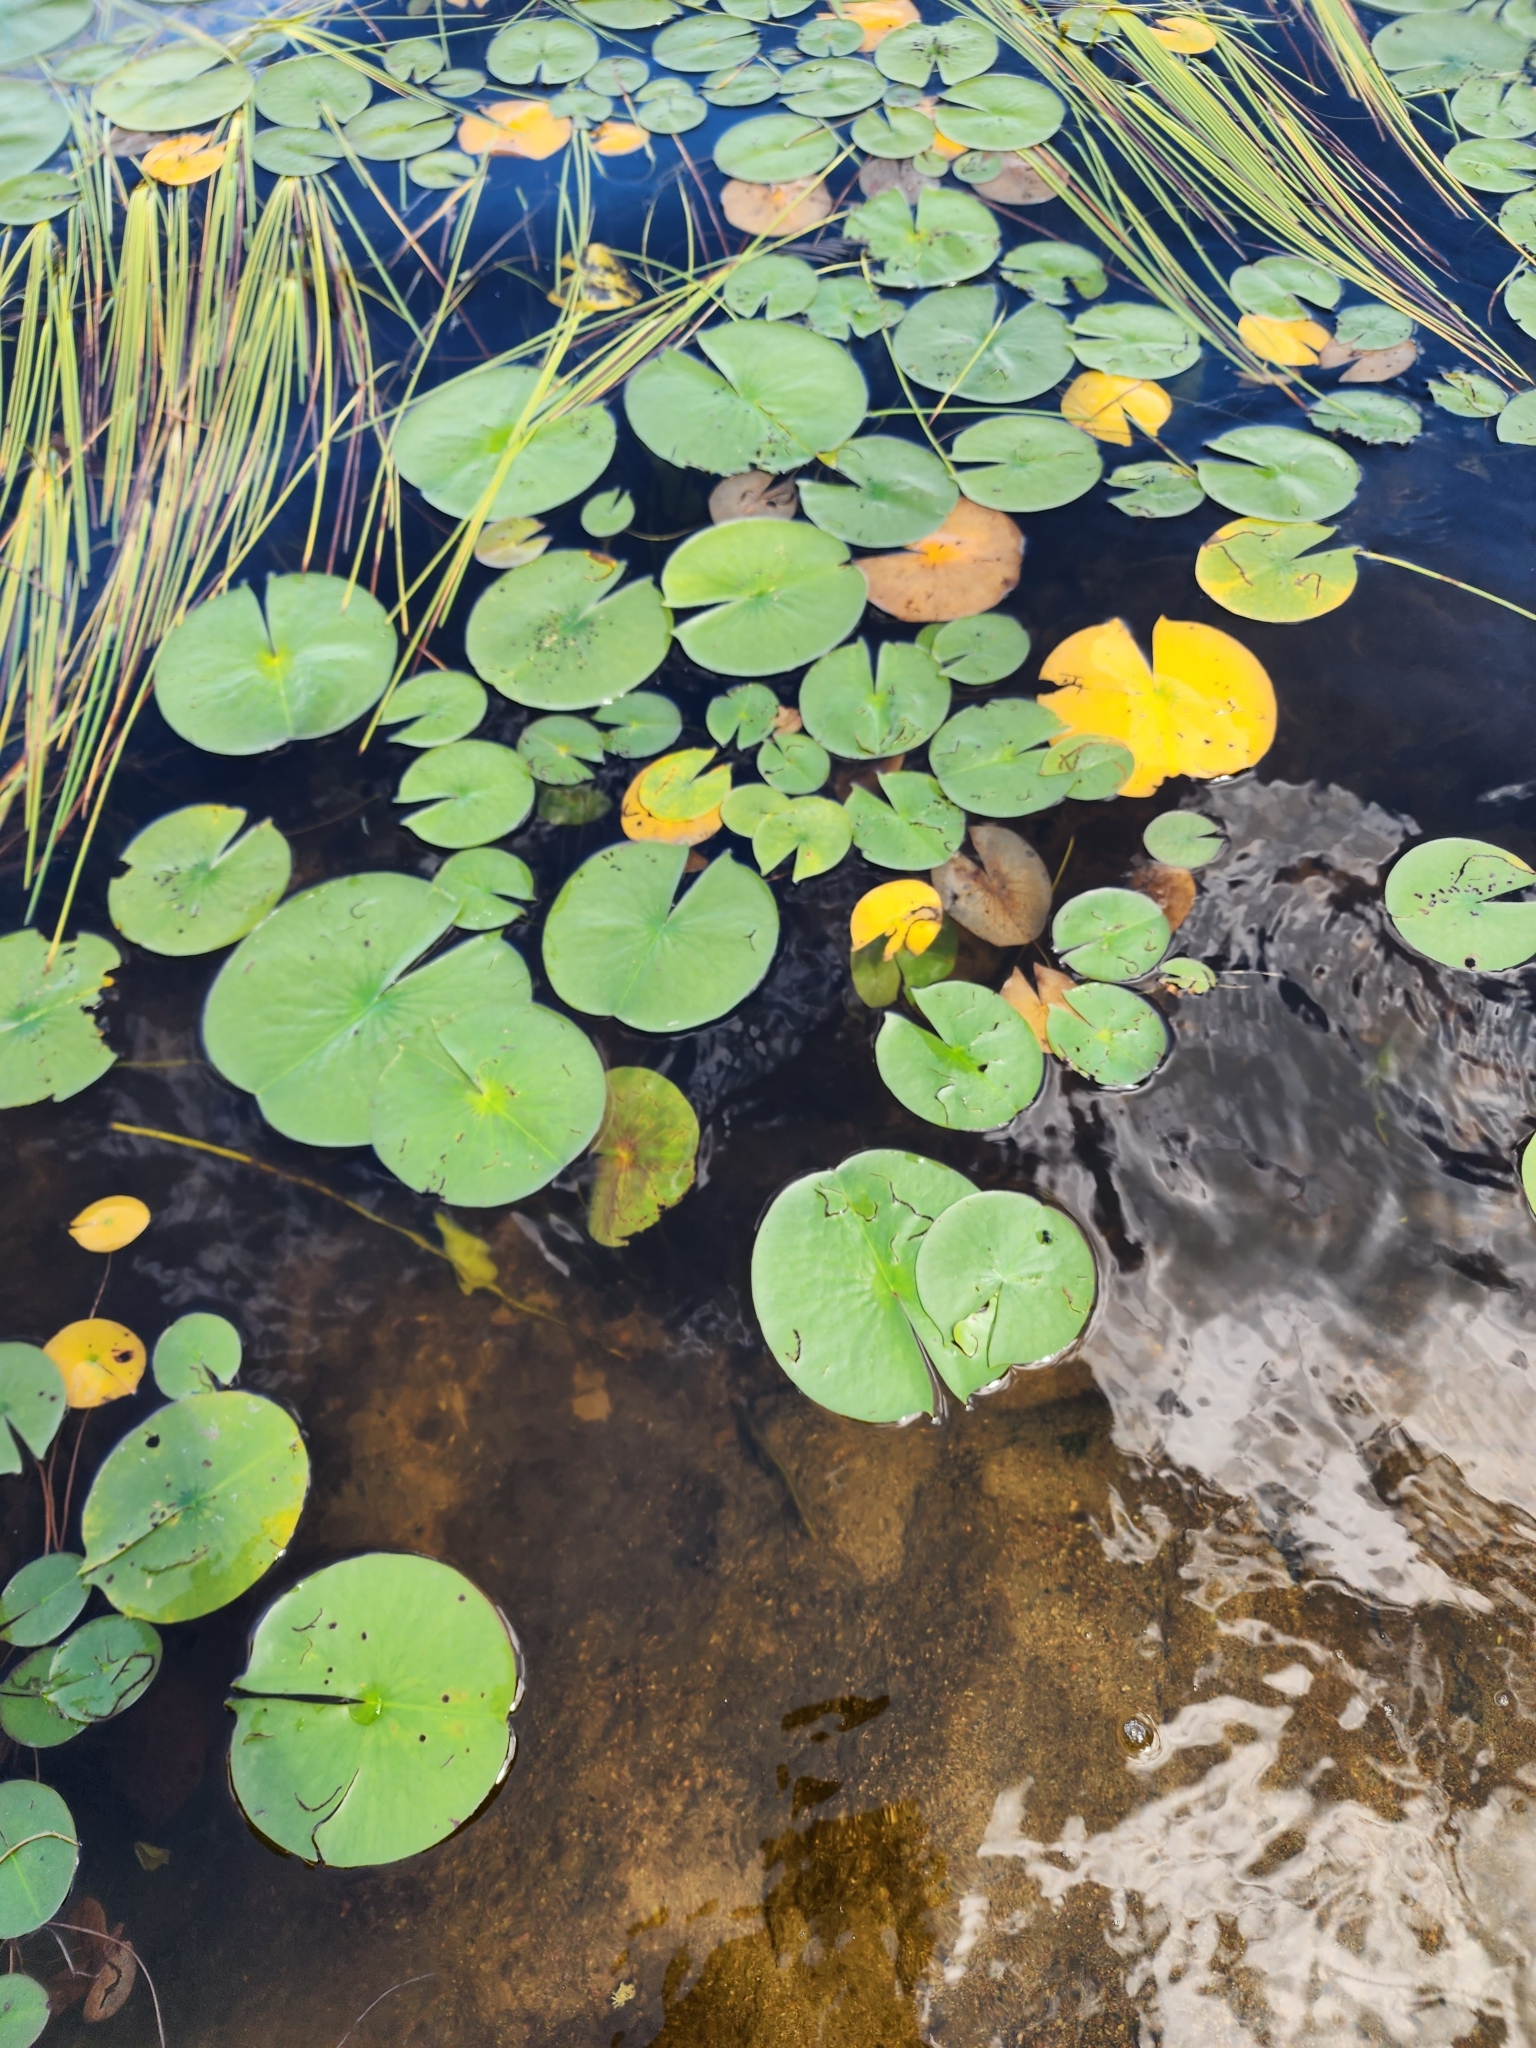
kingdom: Plantae
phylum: Tracheophyta
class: Magnoliopsida
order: Nymphaeales
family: Nymphaeaceae
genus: Nymphaea
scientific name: Nymphaea odorata
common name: Fragrant water-lily
